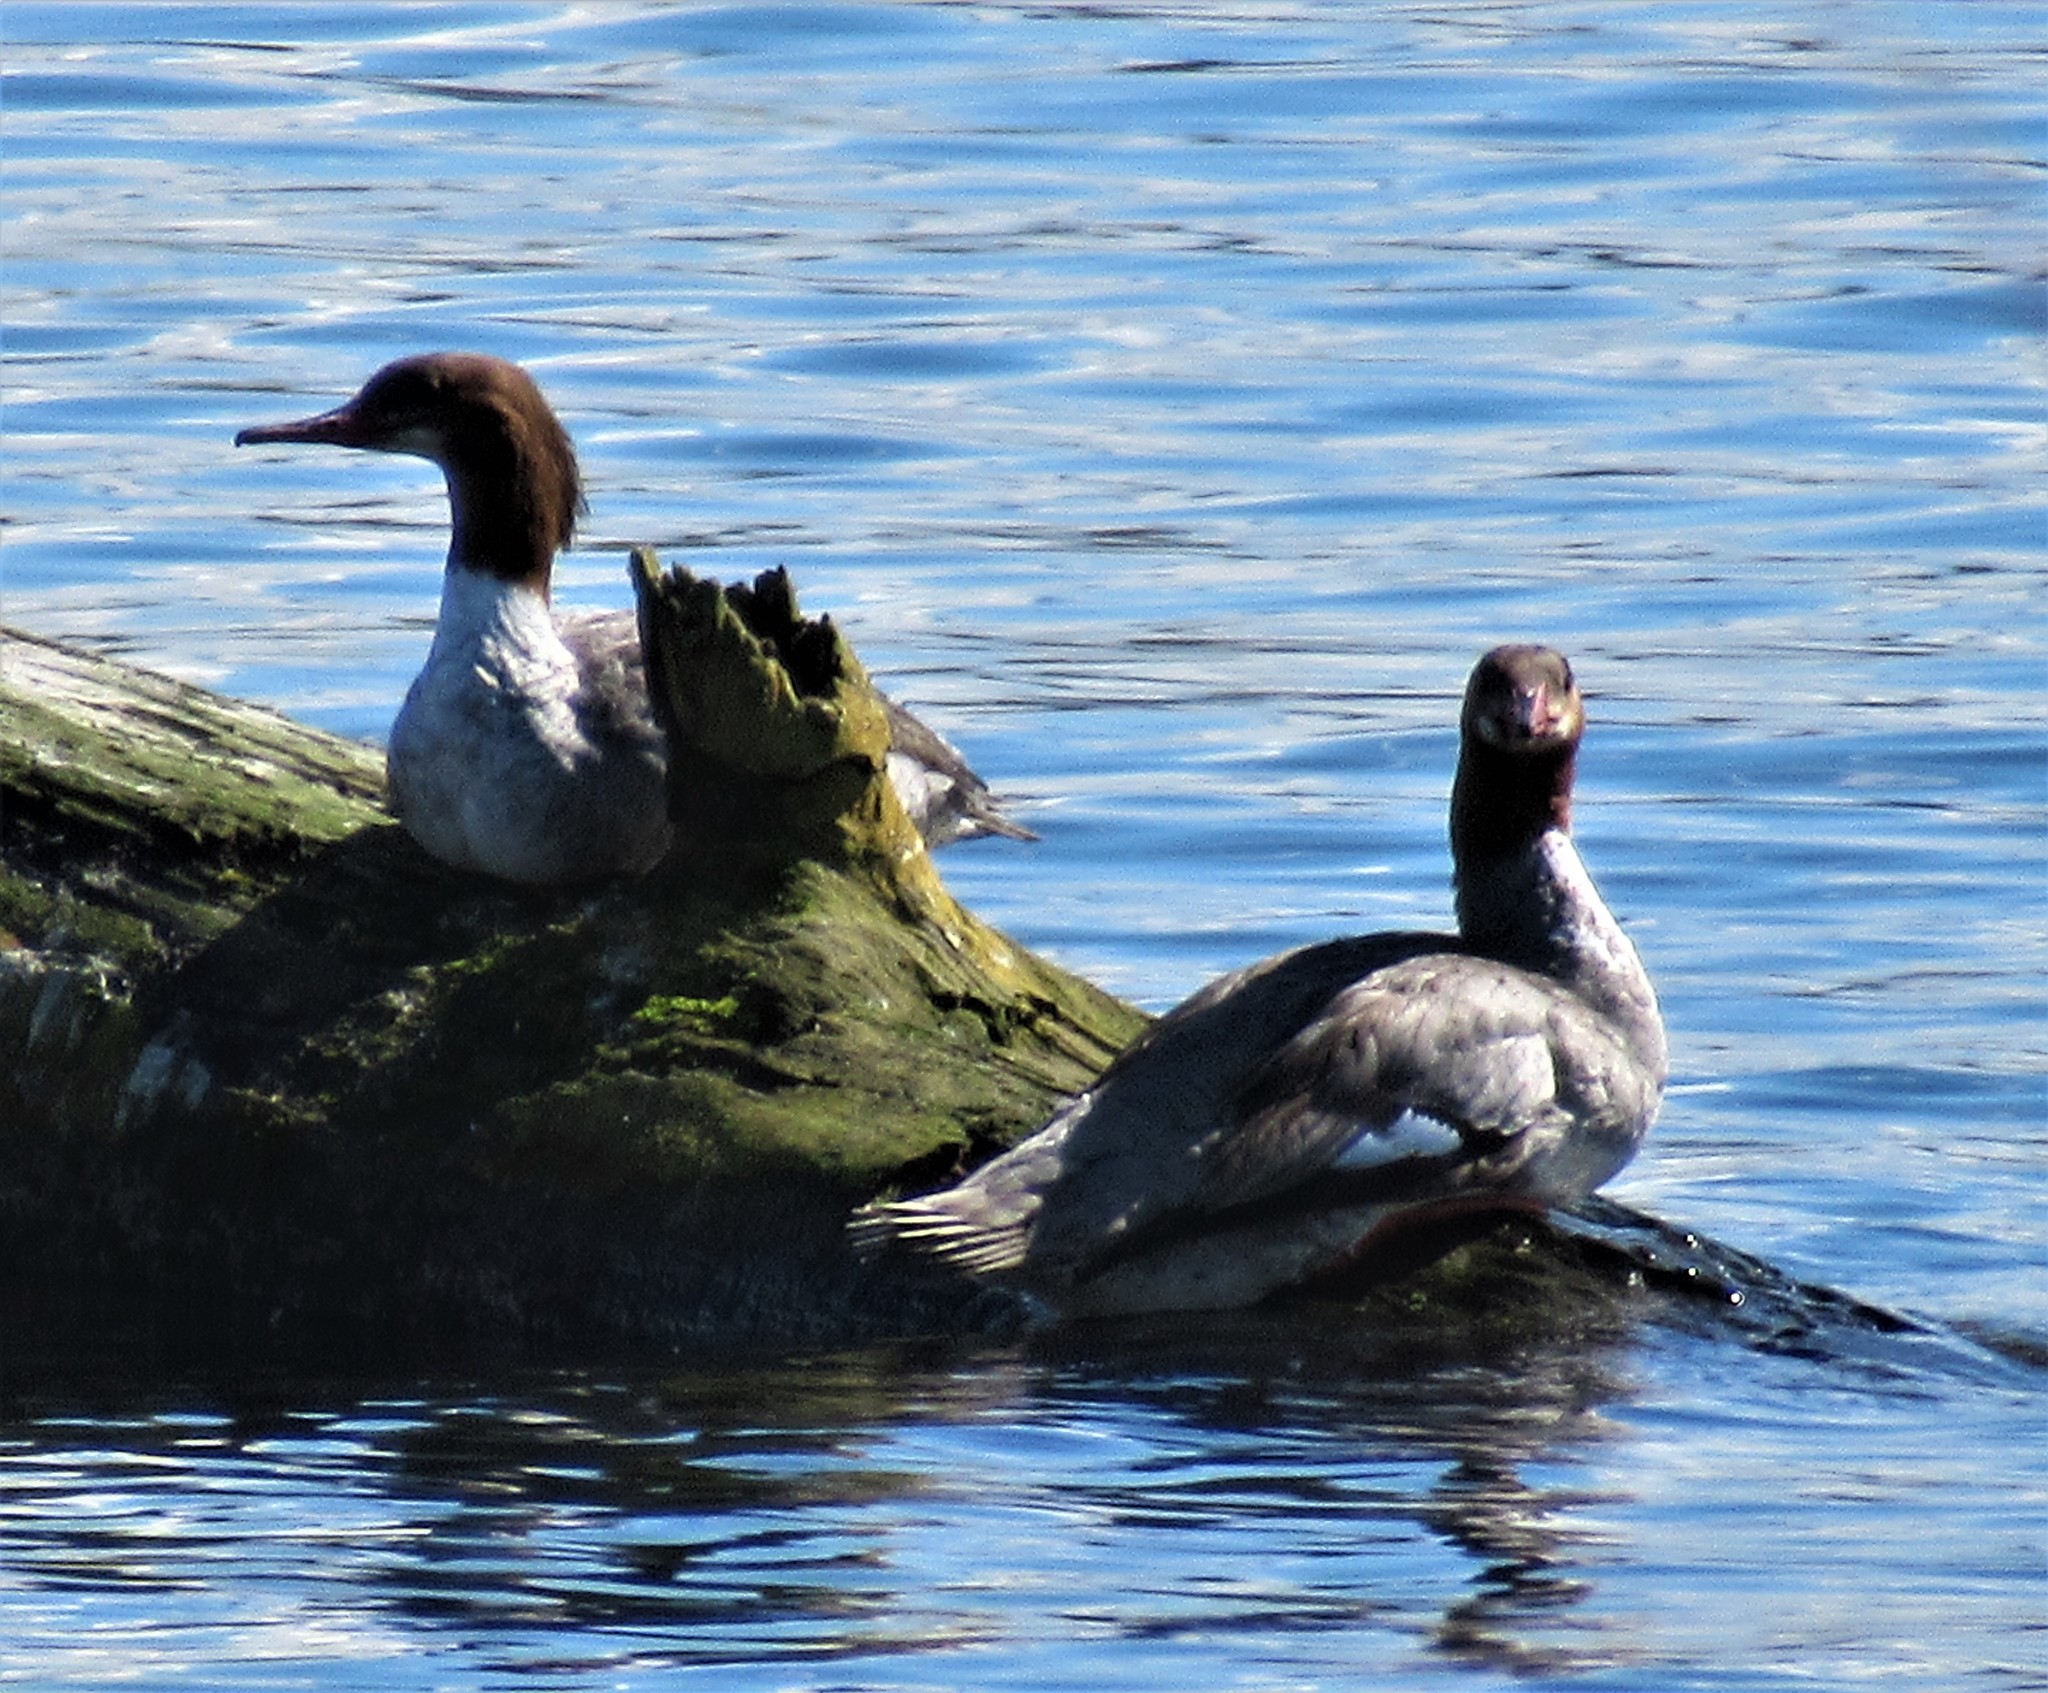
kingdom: Animalia
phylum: Chordata
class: Aves
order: Anseriformes
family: Anatidae
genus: Mergus
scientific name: Mergus merganser
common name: Common merganser
